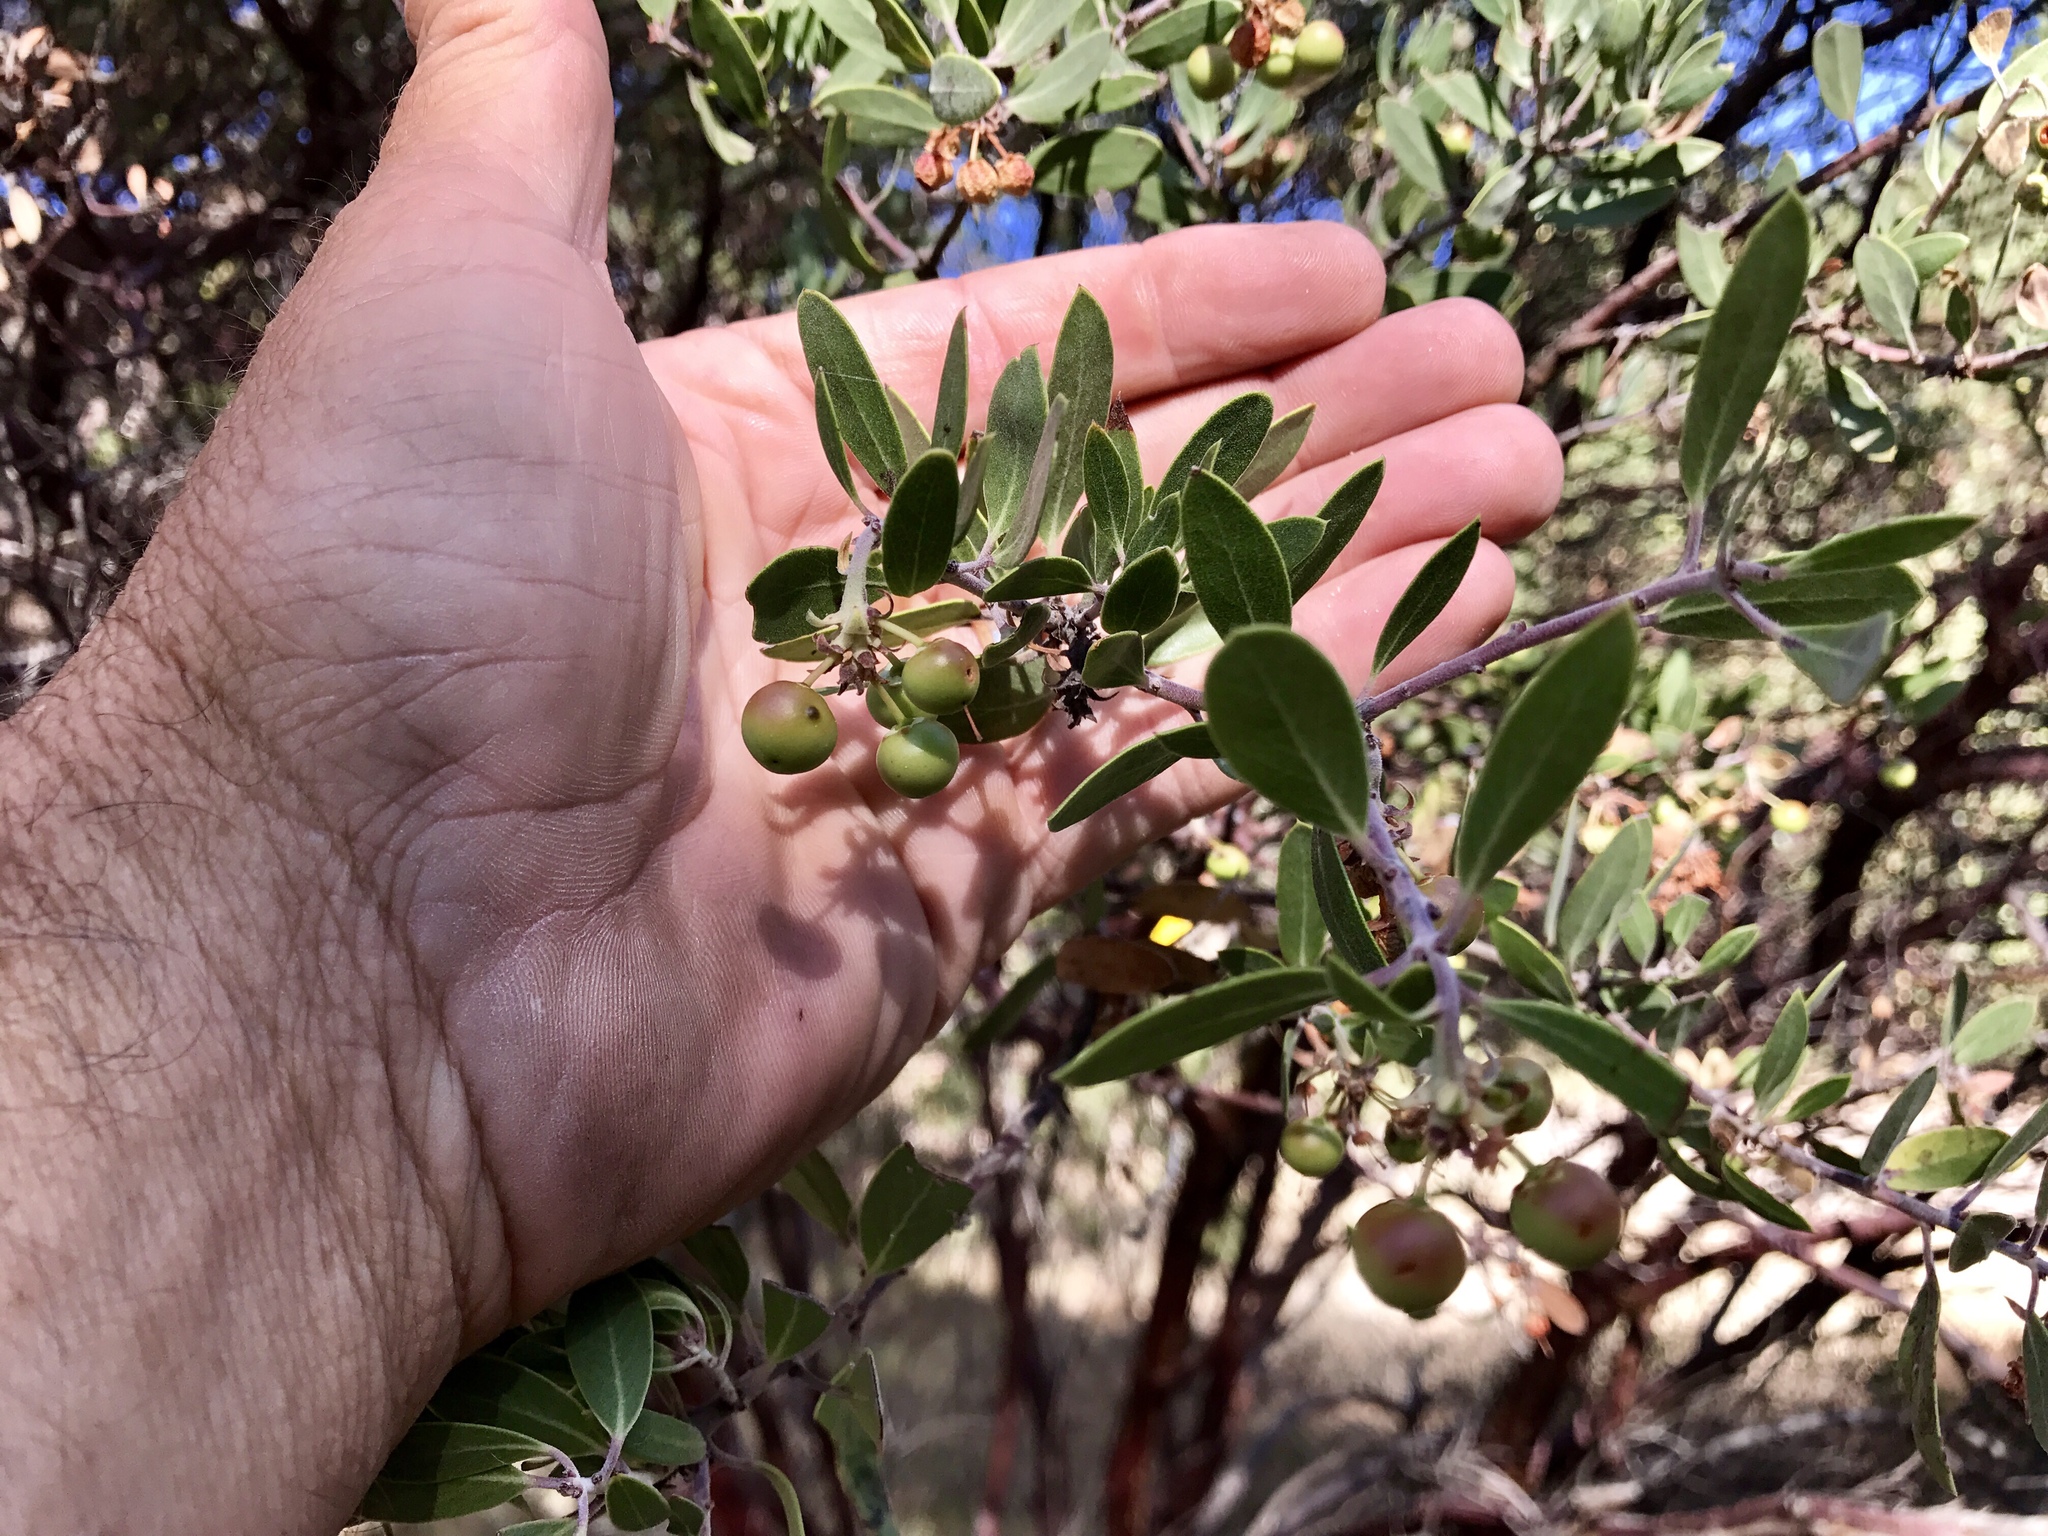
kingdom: Plantae
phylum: Tracheophyta
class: Magnoliopsida
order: Ericales
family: Ericaceae
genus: Arctostaphylos
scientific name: Arctostaphylos pungens
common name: Mexican manzanita
